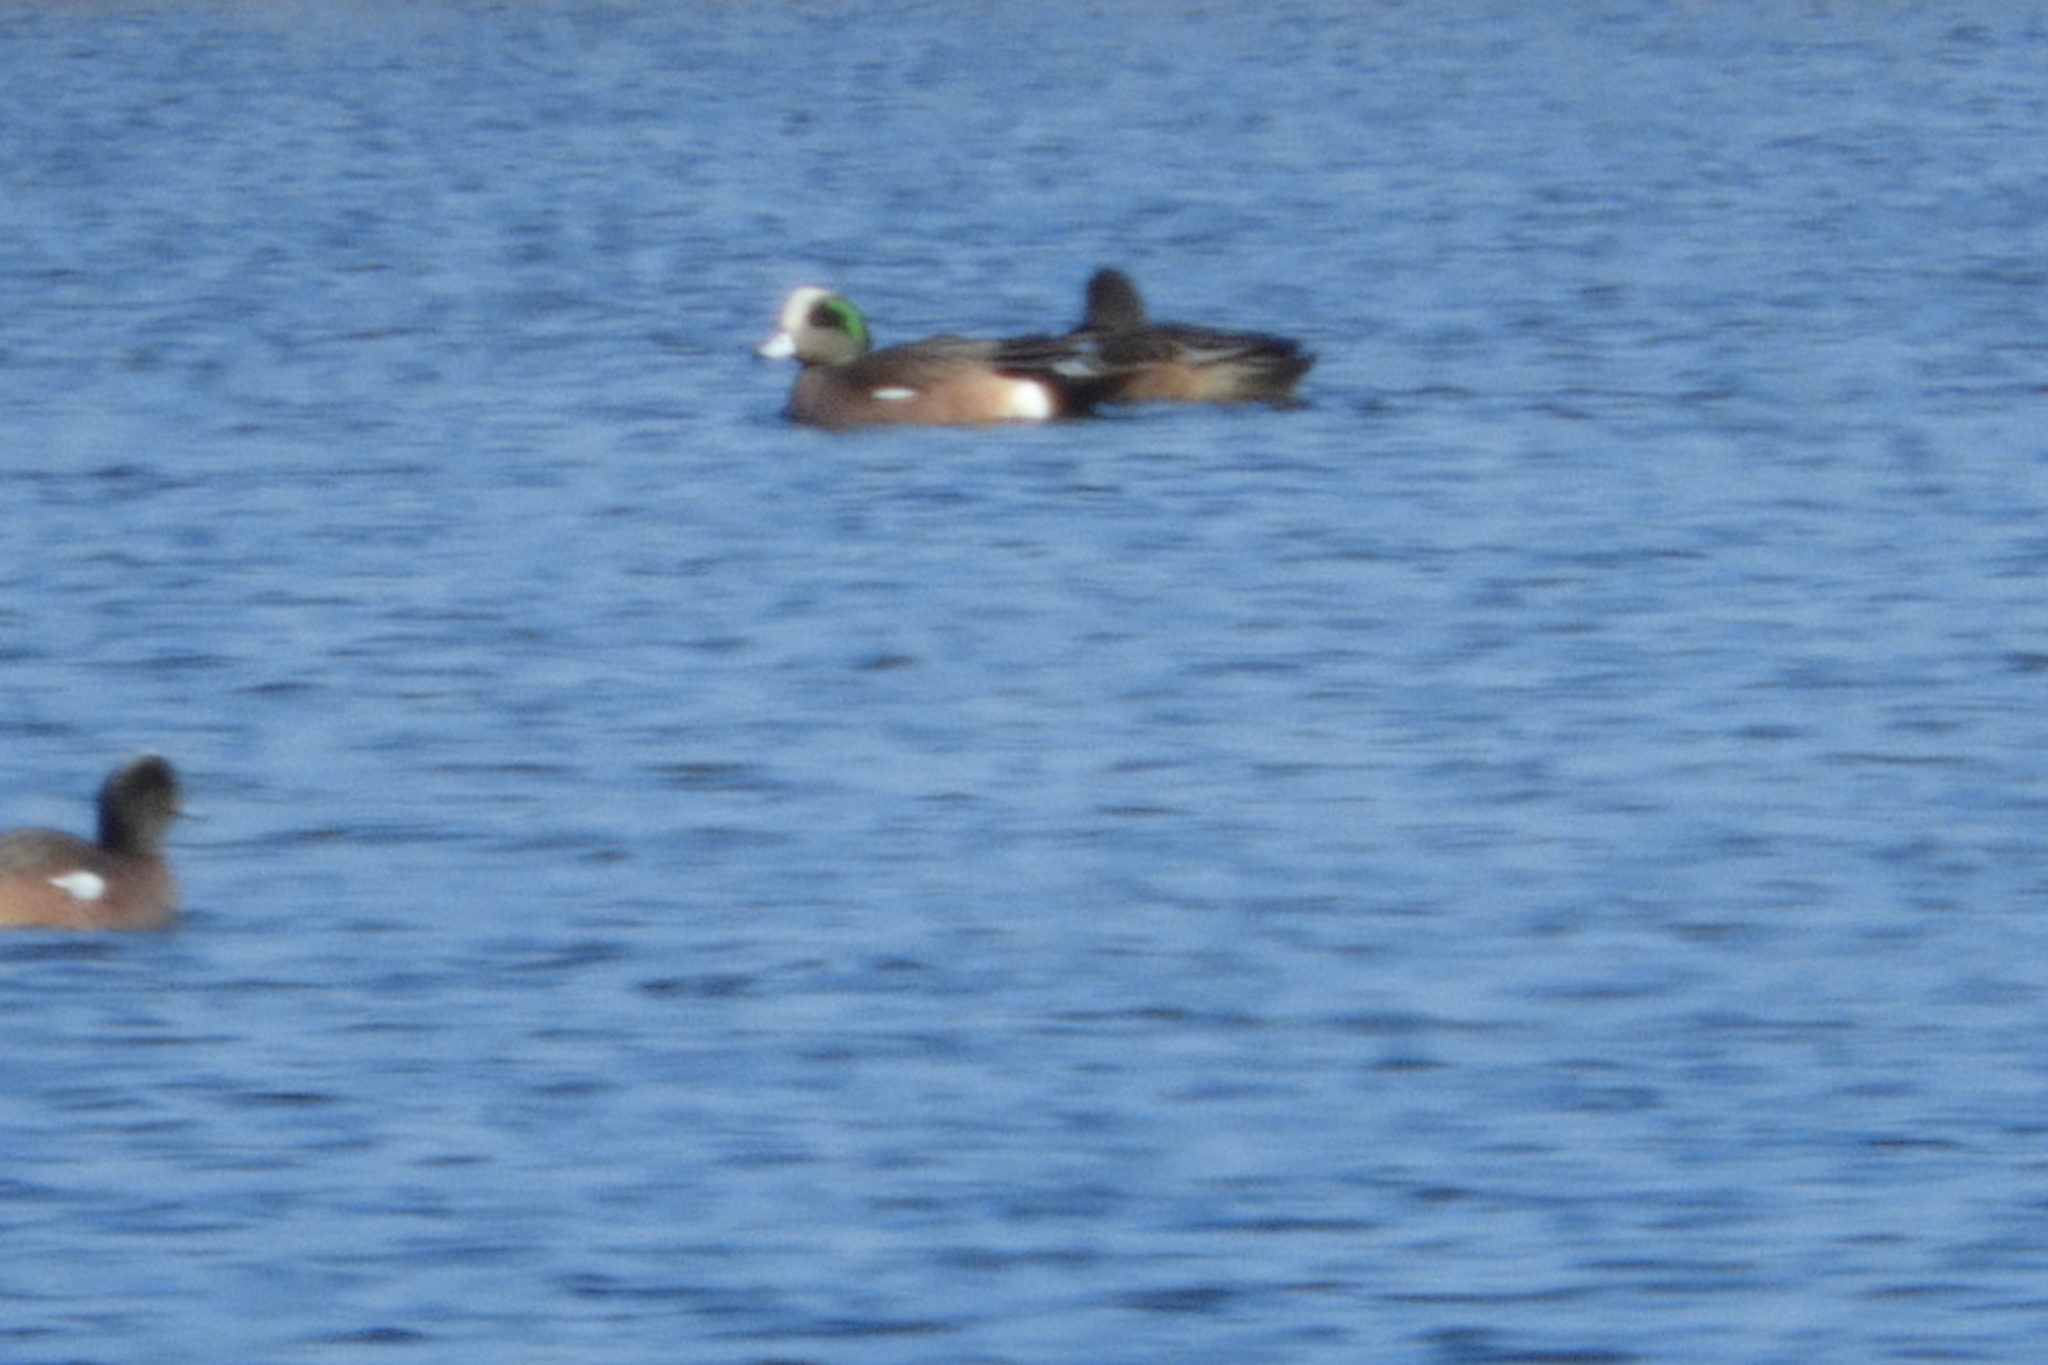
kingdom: Animalia
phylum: Chordata
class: Aves
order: Anseriformes
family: Anatidae
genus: Mareca
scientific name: Mareca americana
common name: American wigeon
